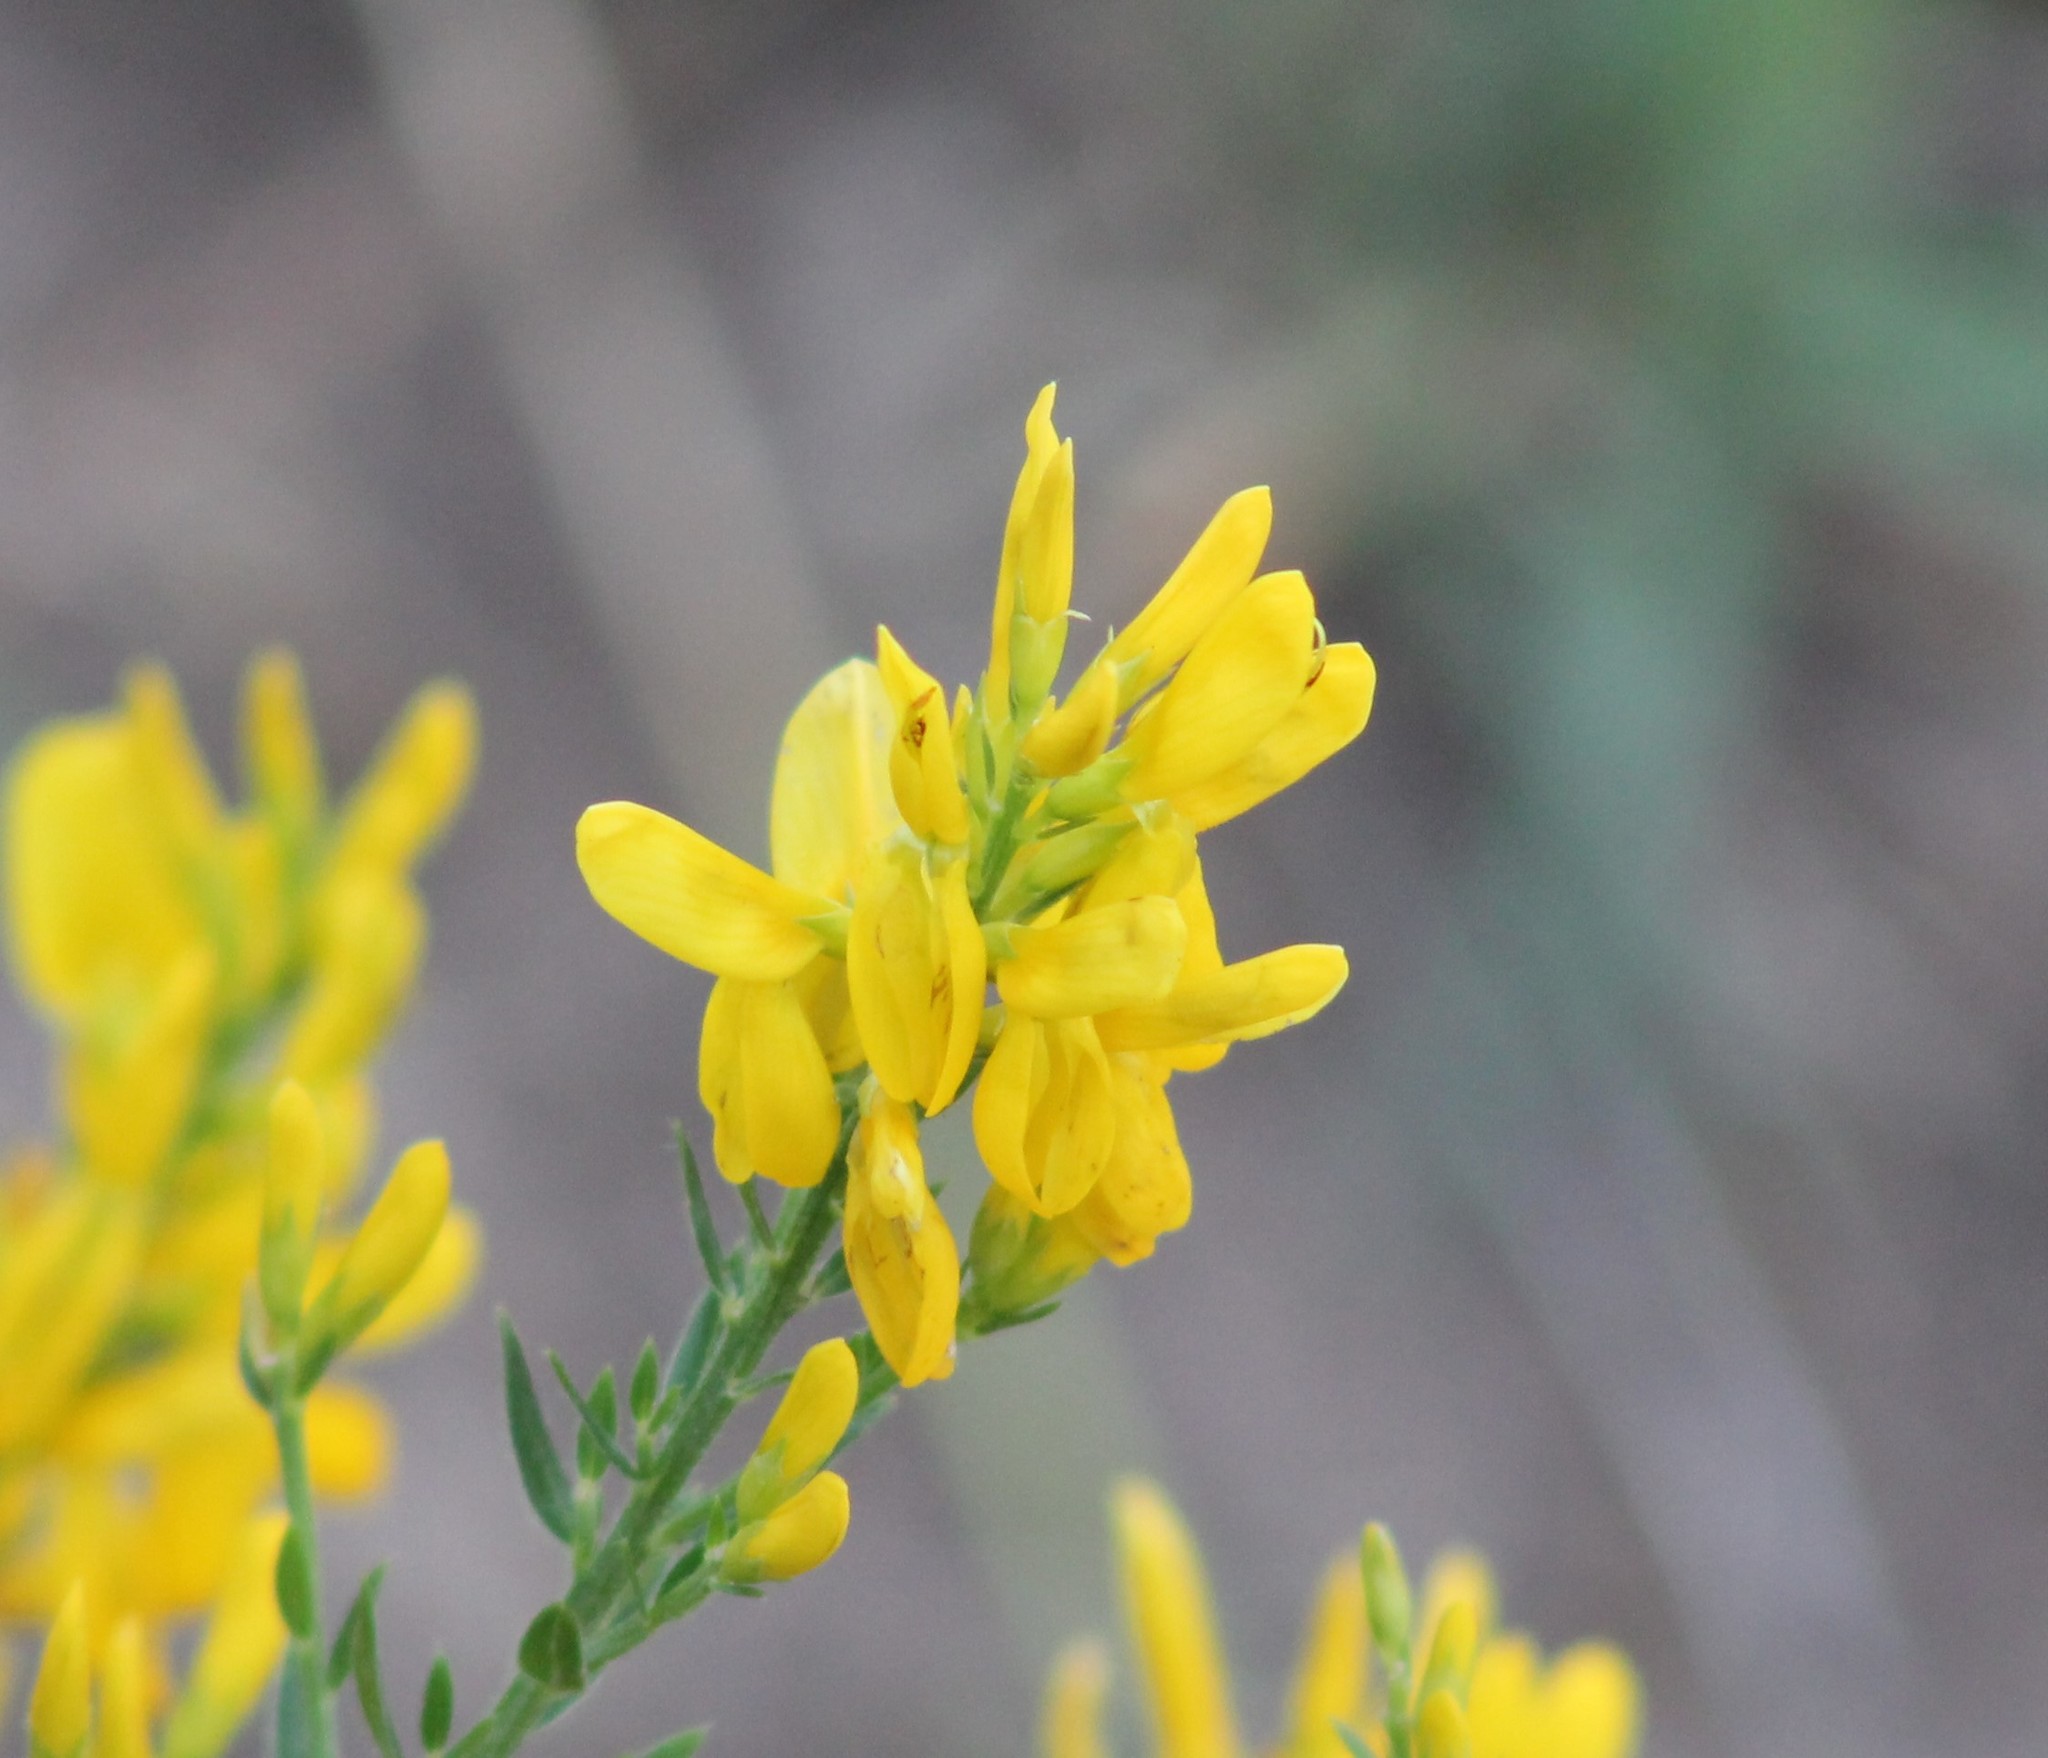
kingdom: Plantae
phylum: Tracheophyta
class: Magnoliopsida
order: Fabales
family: Fabaceae
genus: Genista
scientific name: Genista tinctoria
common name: Dyer's greenweed
